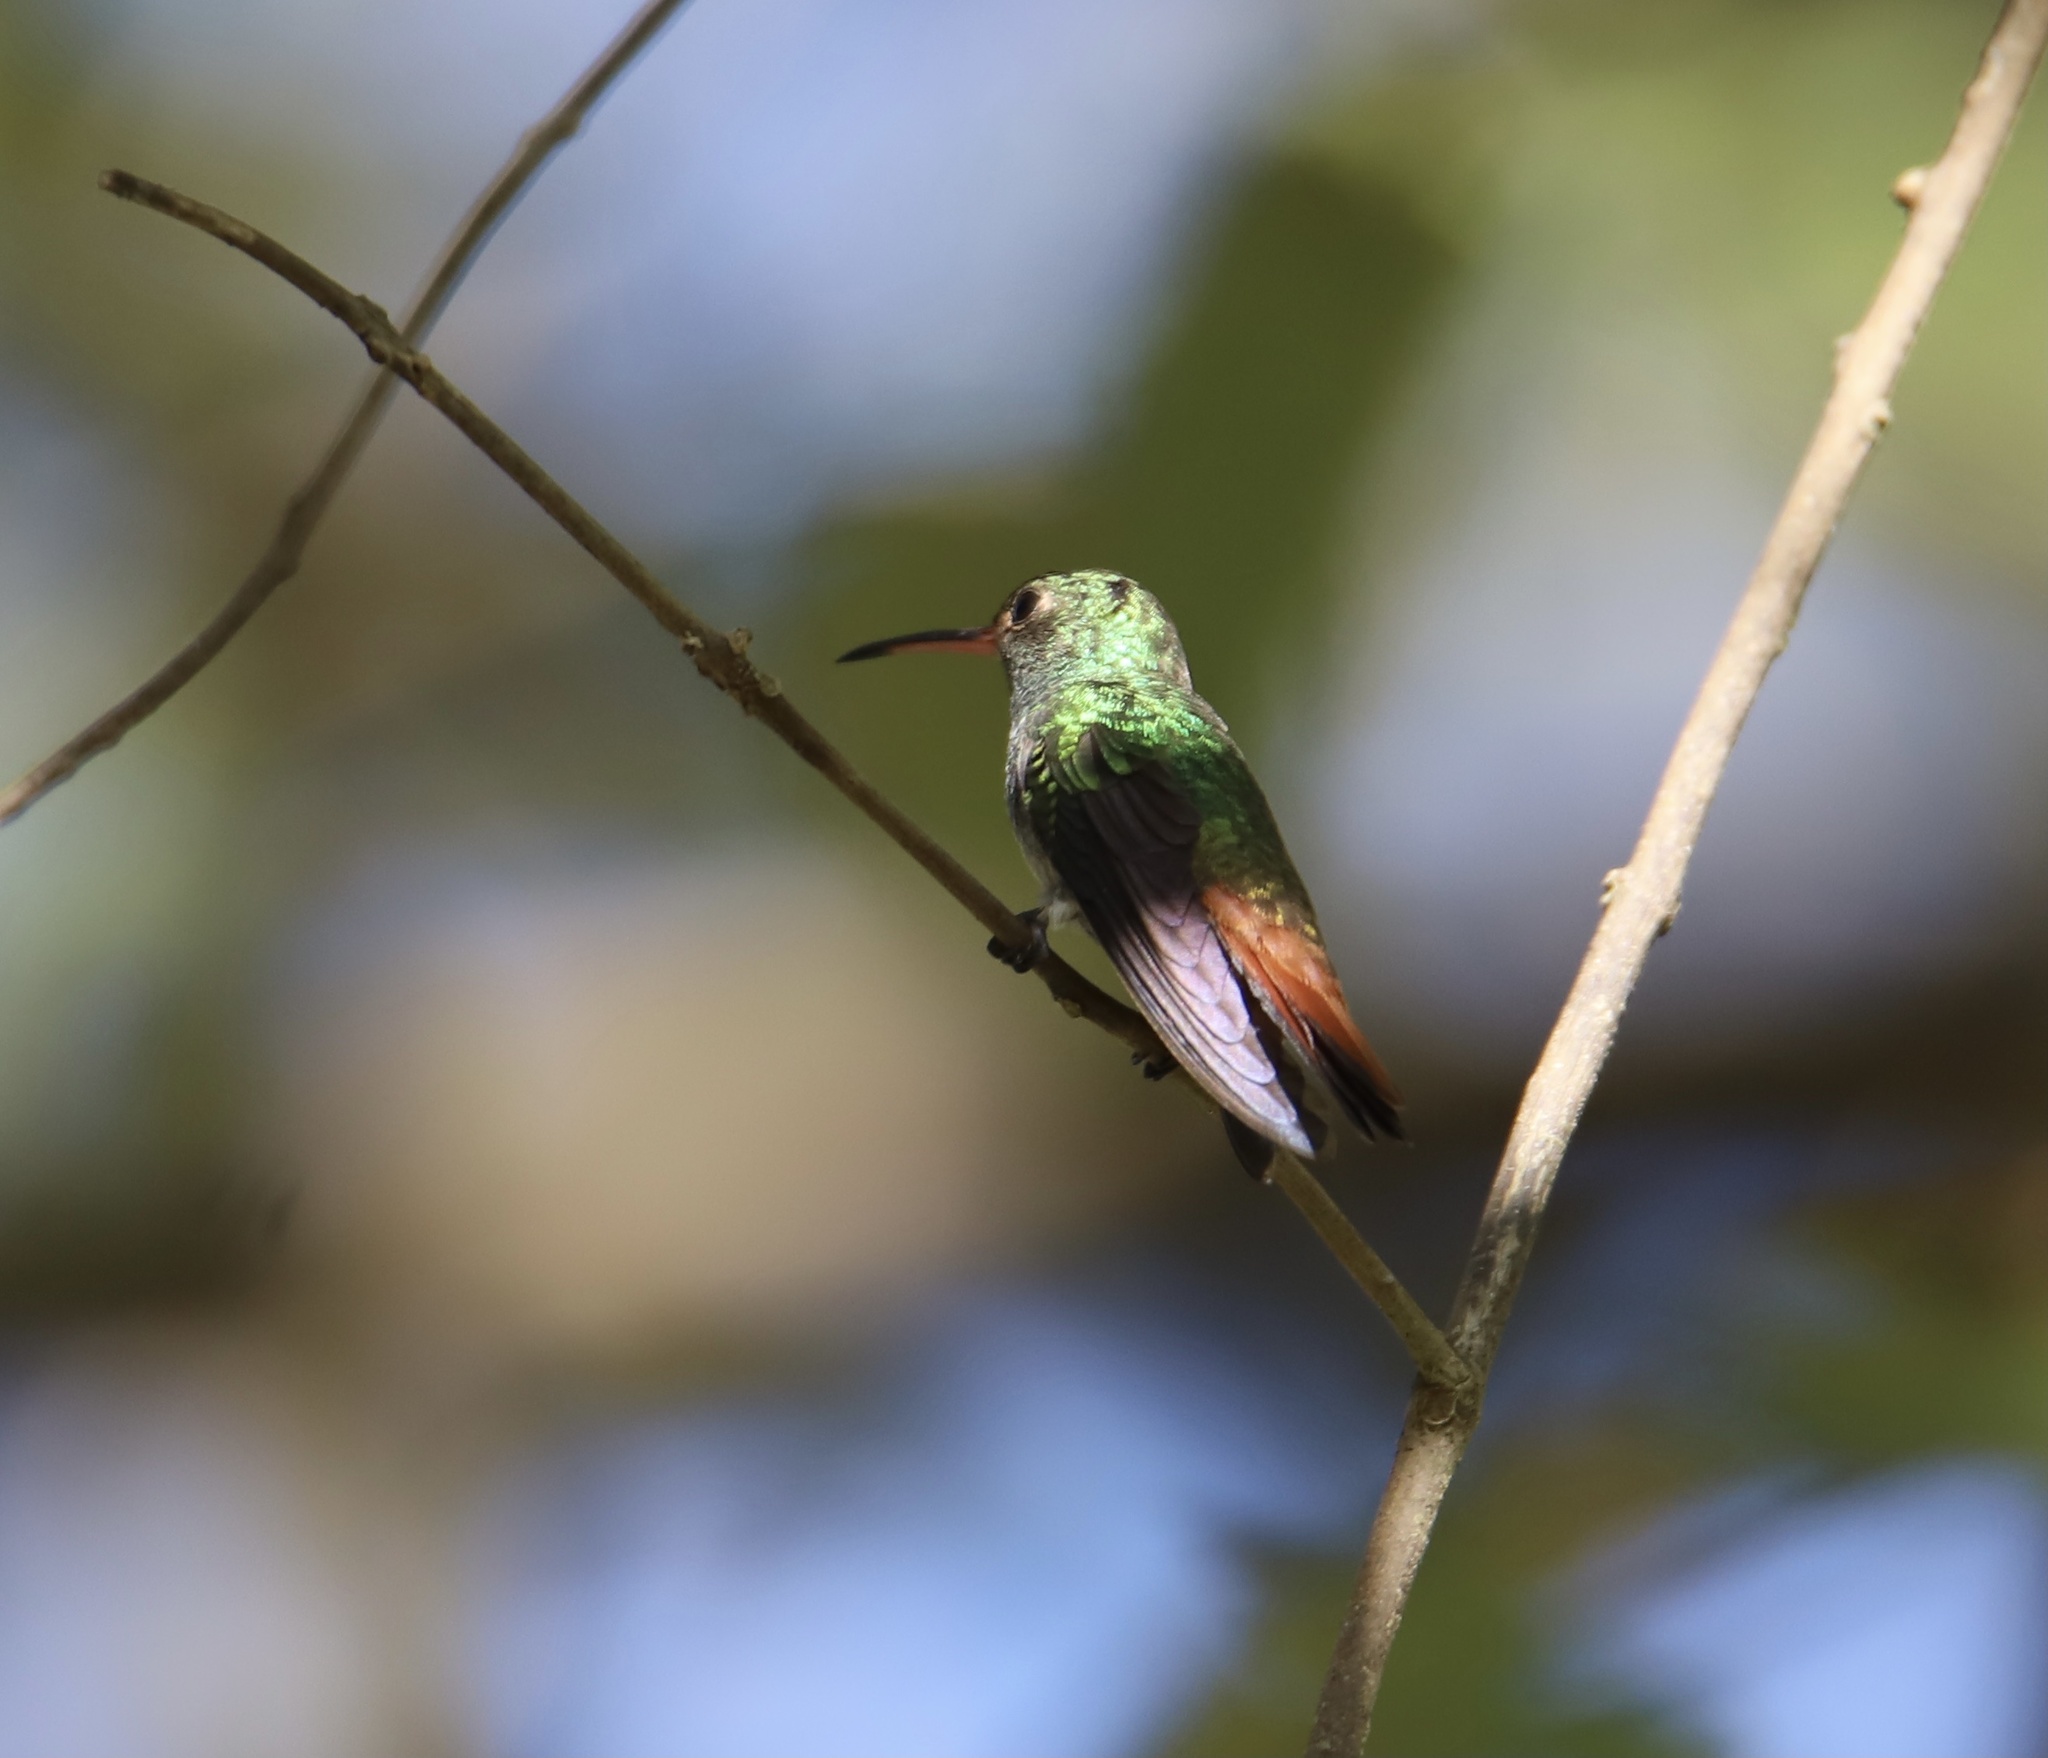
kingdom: Animalia
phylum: Chordata
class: Aves
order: Apodiformes
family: Trochilidae
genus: Amazilia
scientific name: Amazilia tzacatl
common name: Rufous-tailed hummingbird
